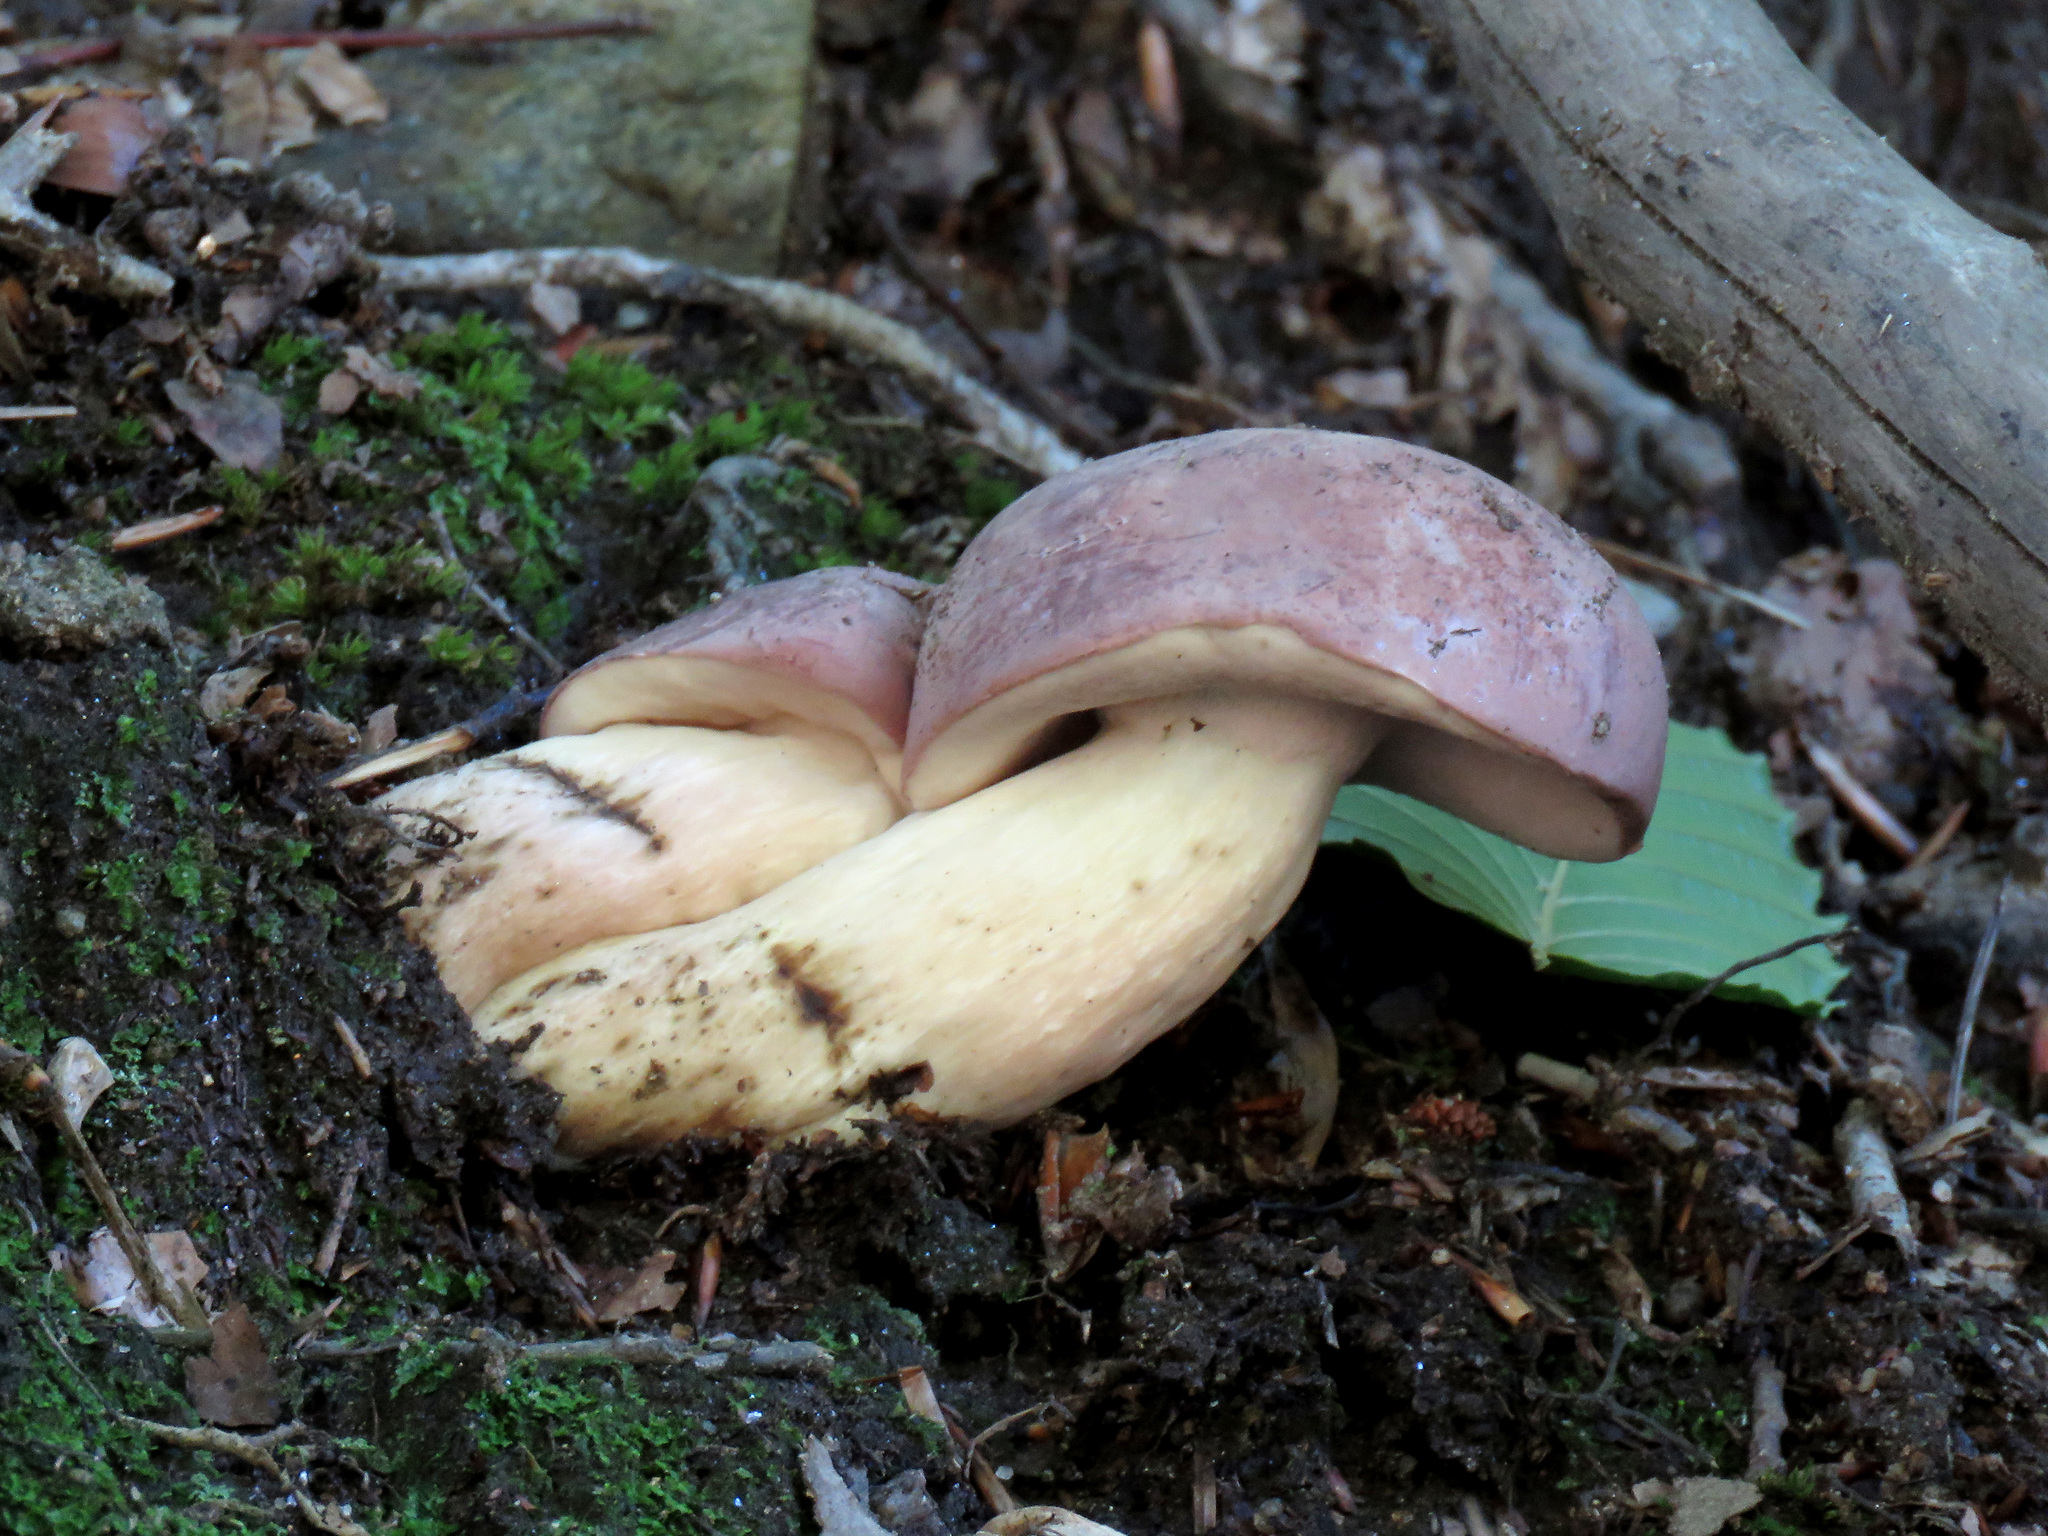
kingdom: Fungi
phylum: Basidiomycota
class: Agaricomycetes
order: Boletales
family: Boletaceae
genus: Tylopilus
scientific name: Tylopilus rubrobrunneus
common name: Reddish brown bitter bolete
